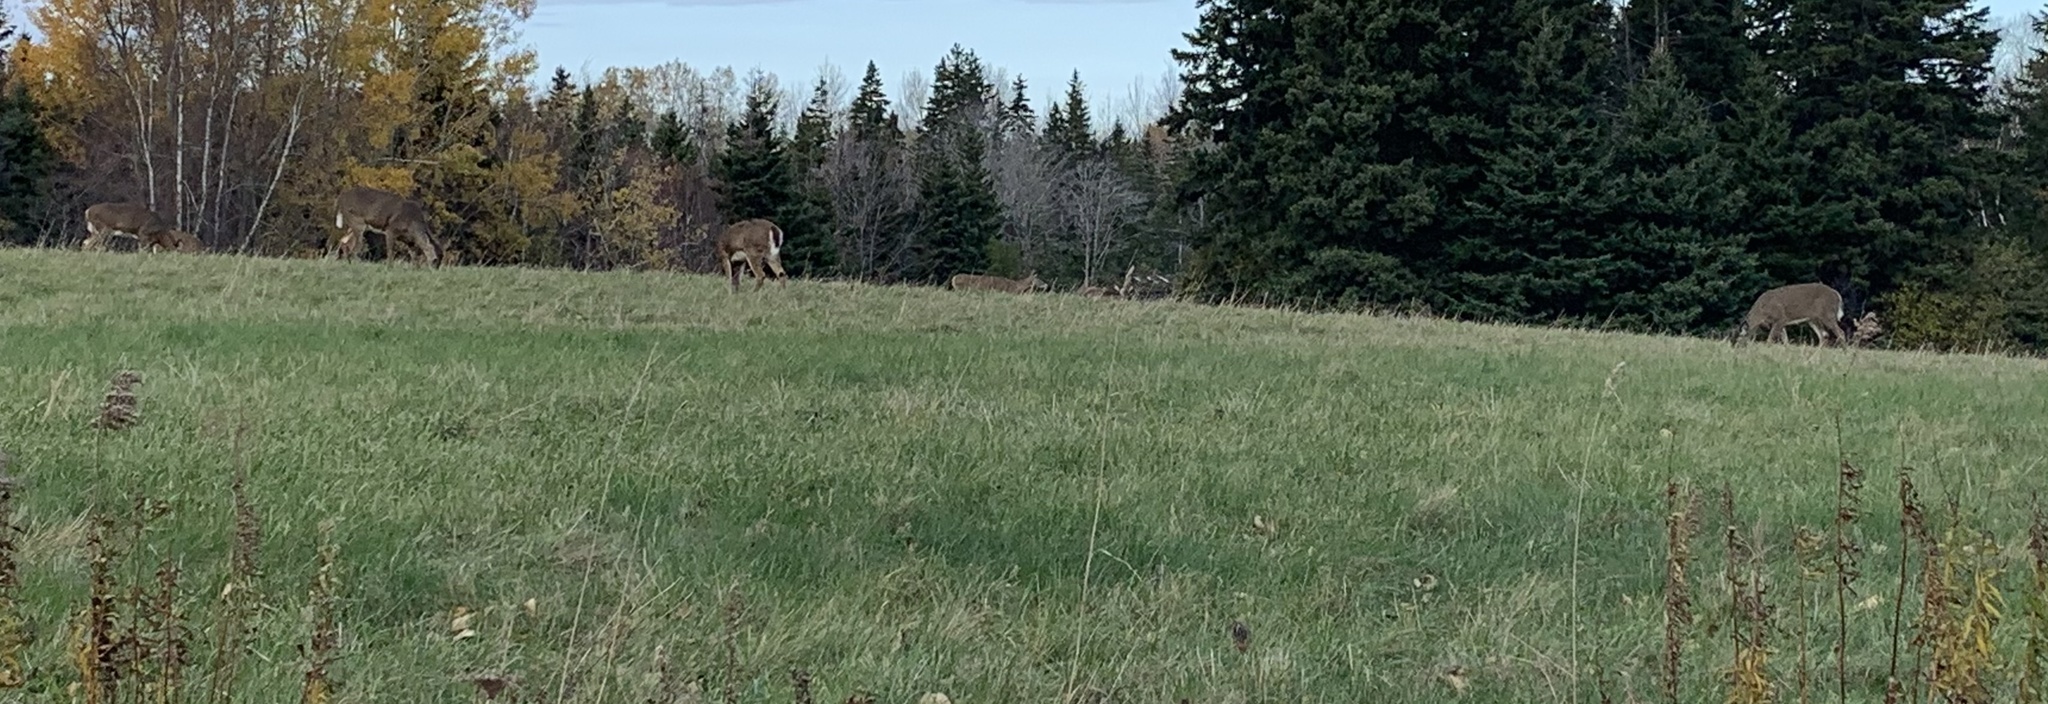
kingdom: Animalia
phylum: Chordata
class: Mammalia
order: Artiodactyla
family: Cervidae
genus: Odocoileus
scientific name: Odocoileus virginianus
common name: White-tailed deer
